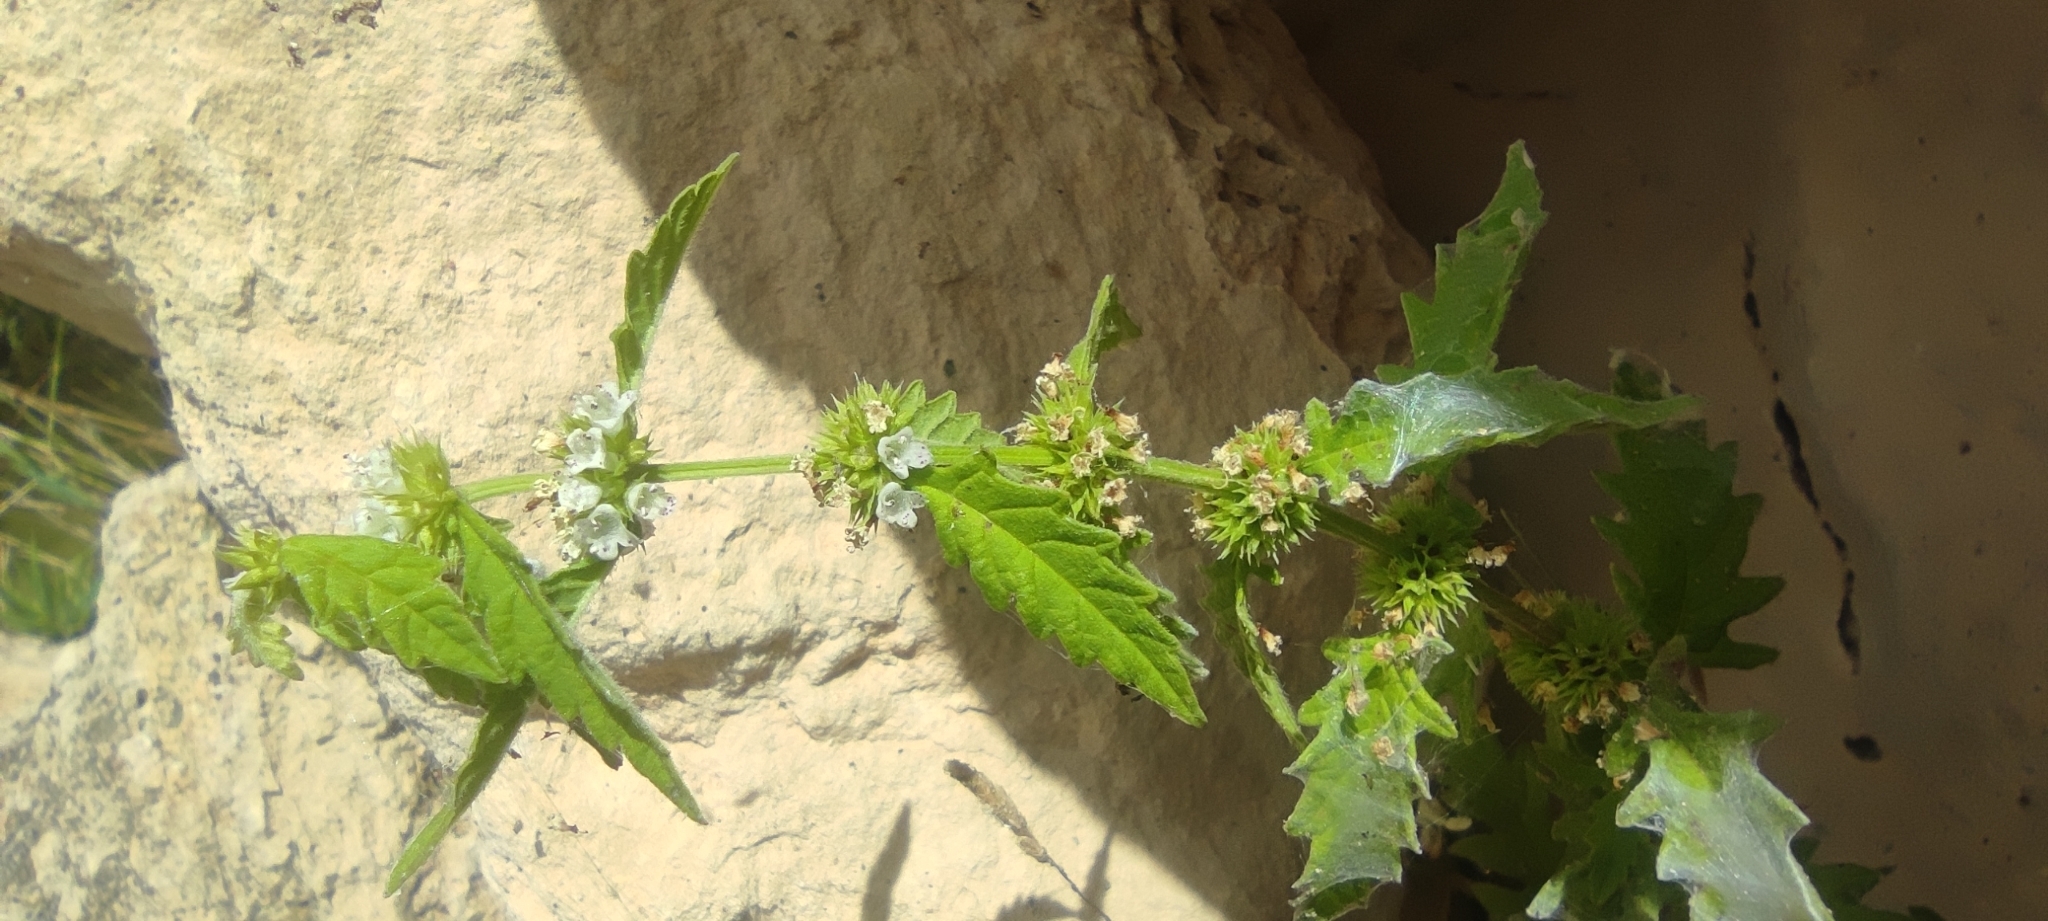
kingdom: Plantae
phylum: Tracheophyta
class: Magnoliopsida
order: Lamiales
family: Lamiaceae
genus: Lycopus
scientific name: Lycopus europaeus
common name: European bugleweed
